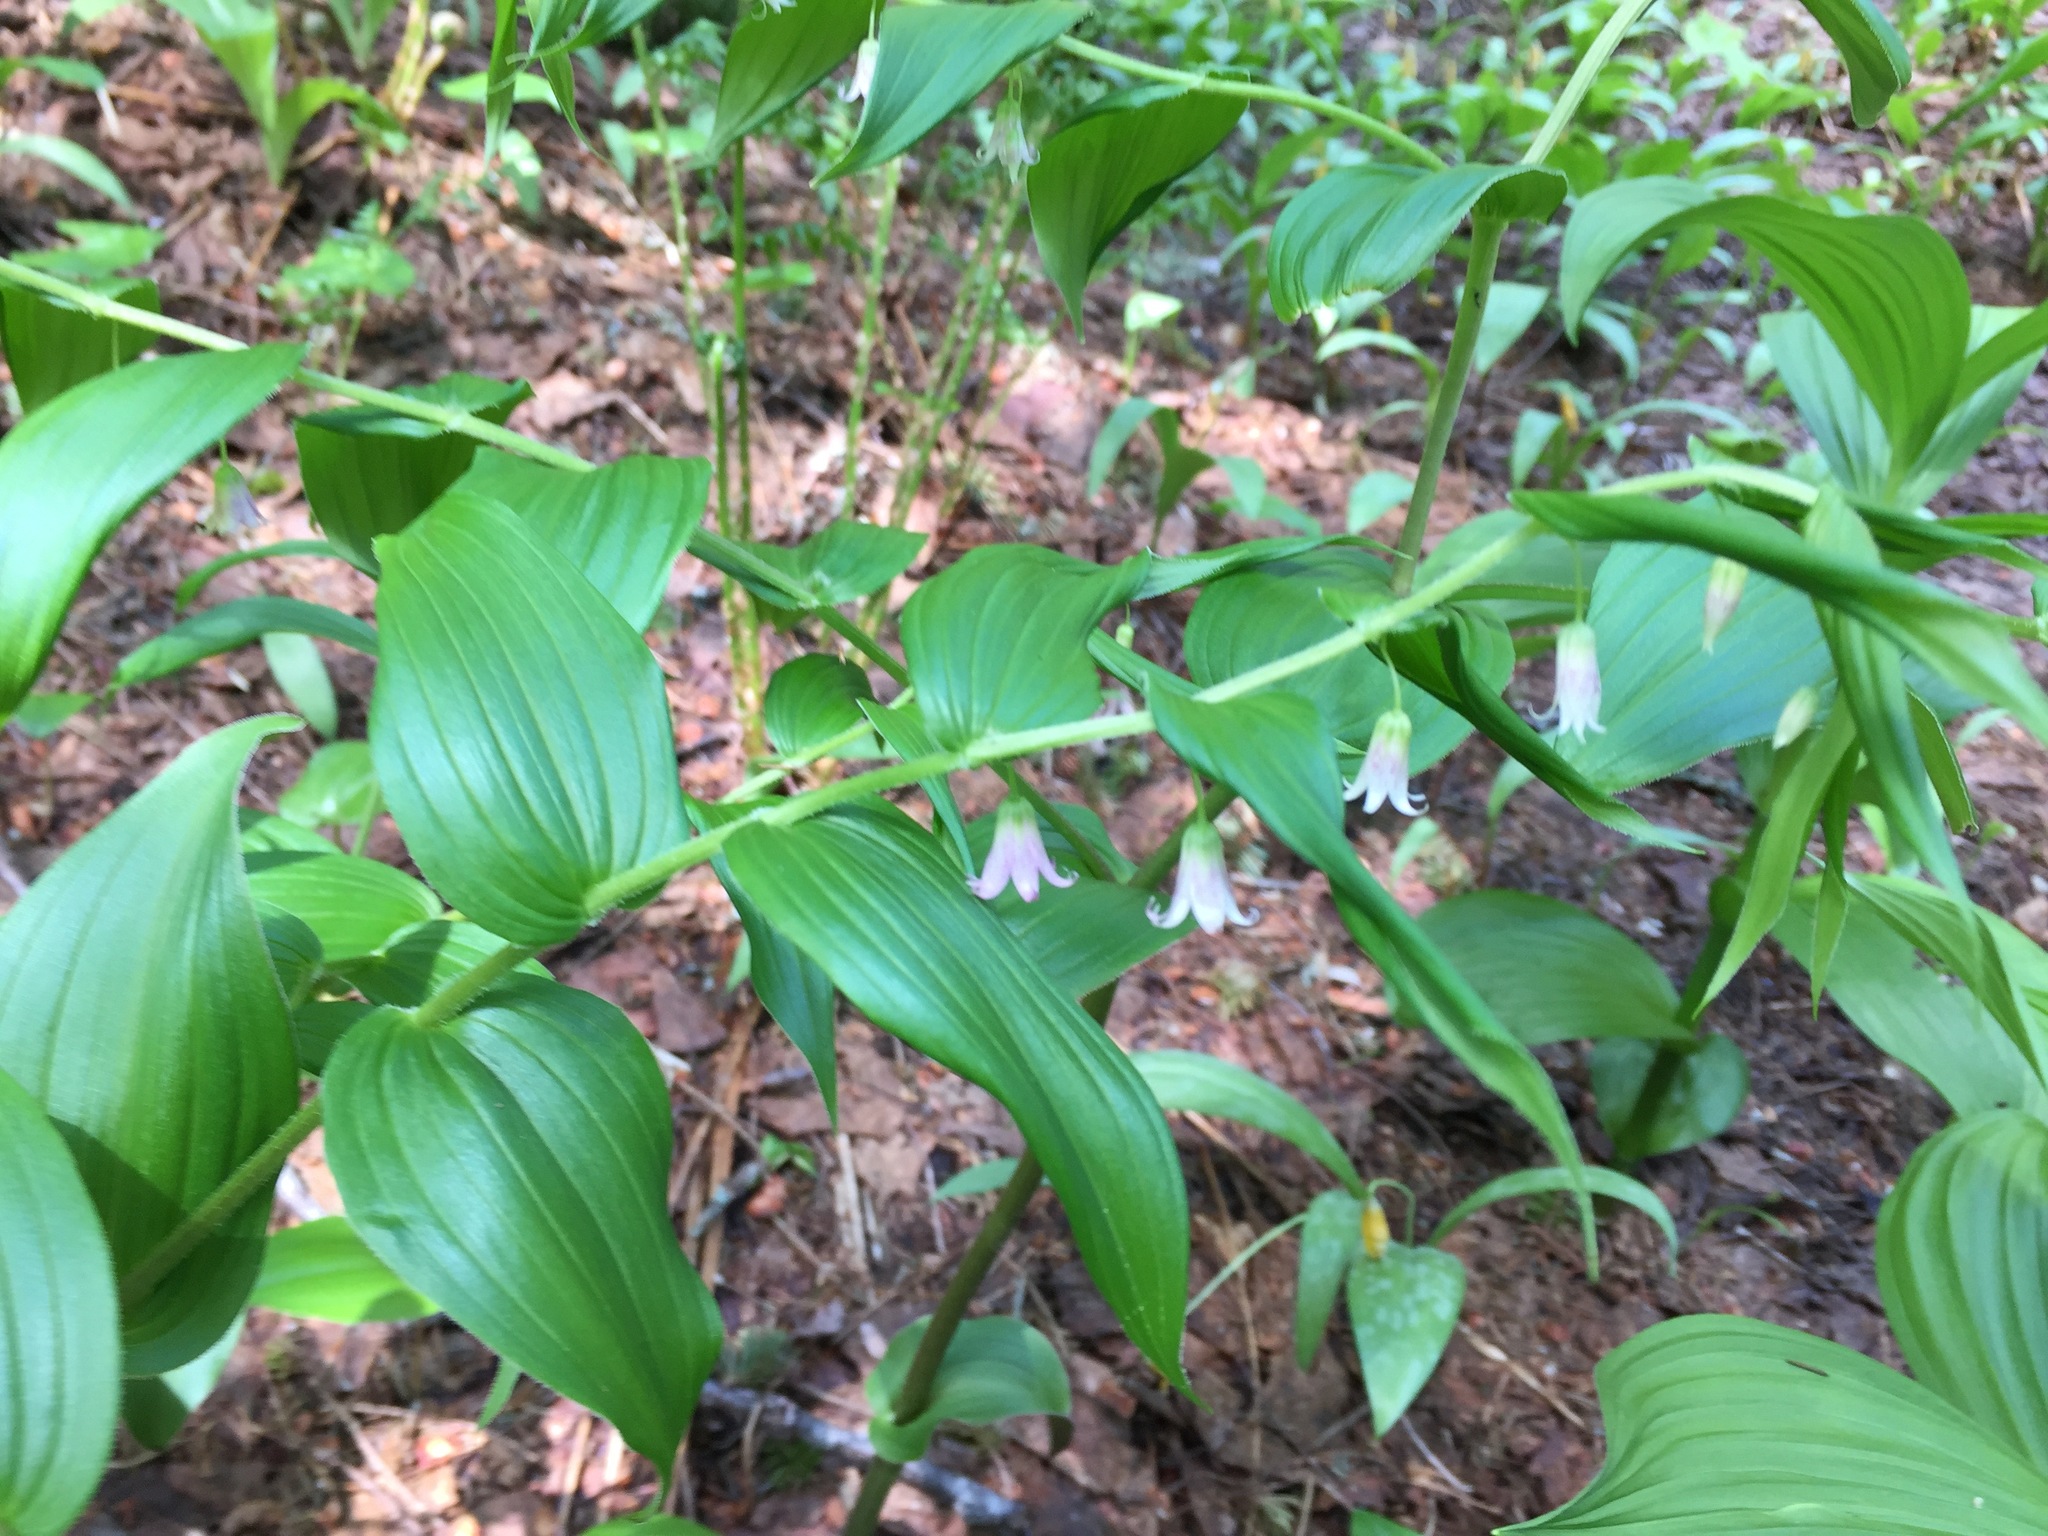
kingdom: Plantae
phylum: Tracheophyta
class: Liliopsida
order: Liliales
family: Liliaceae
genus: Streptopus
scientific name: Streptopus lanceolatus
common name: Rose mandarin
